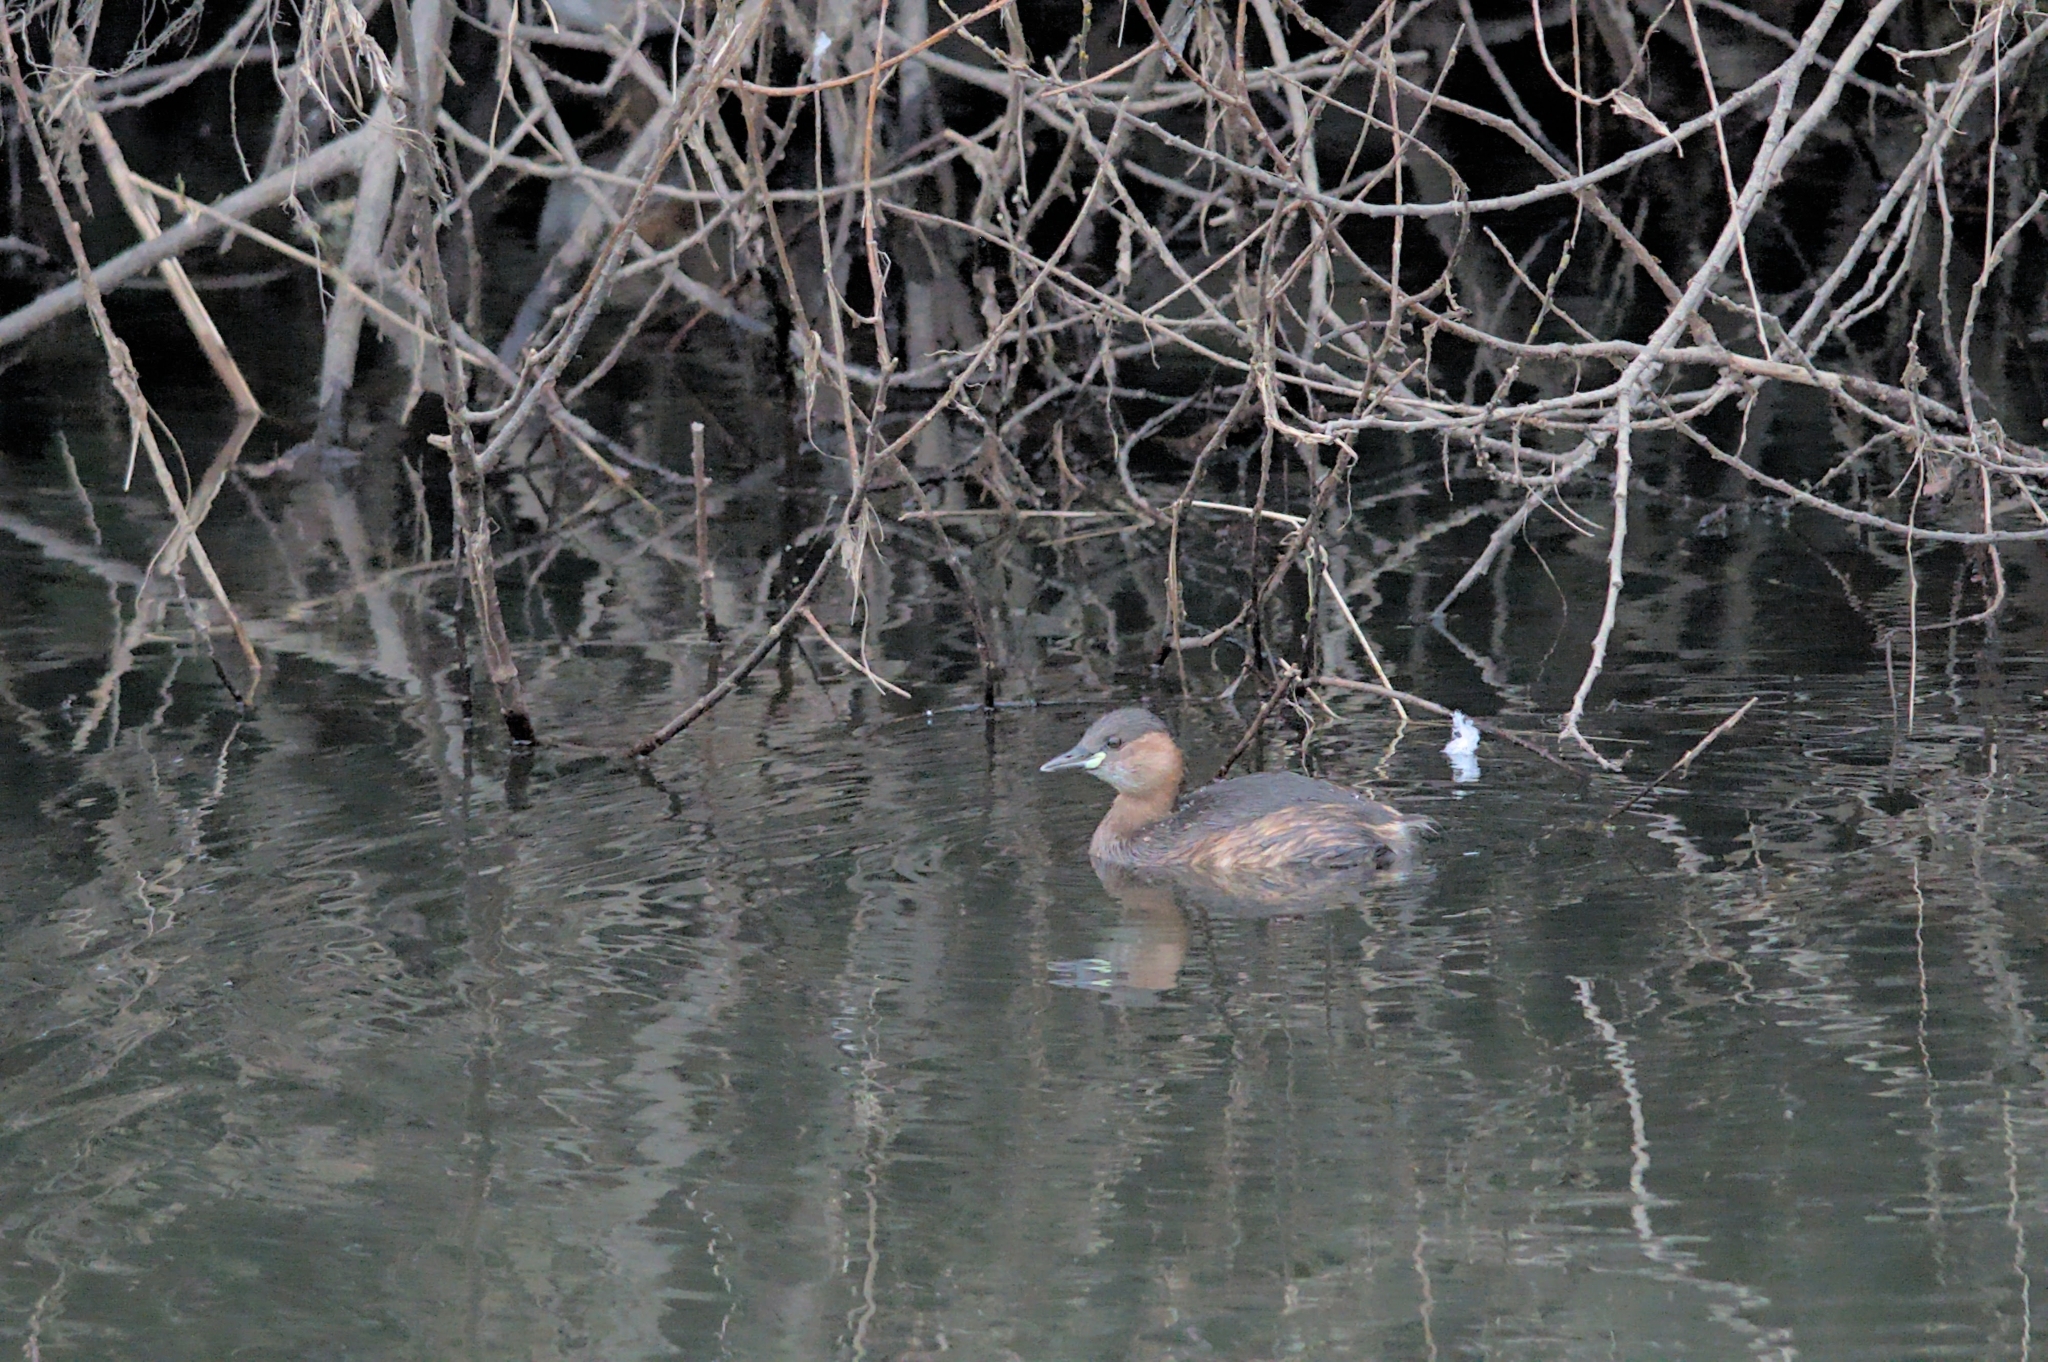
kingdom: Animalia
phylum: Chordata
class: Aves
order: Podicipediformes
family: Podicipedidae
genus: Tachybaptus
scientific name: Tachybaptus ruficollis
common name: Little grebe
